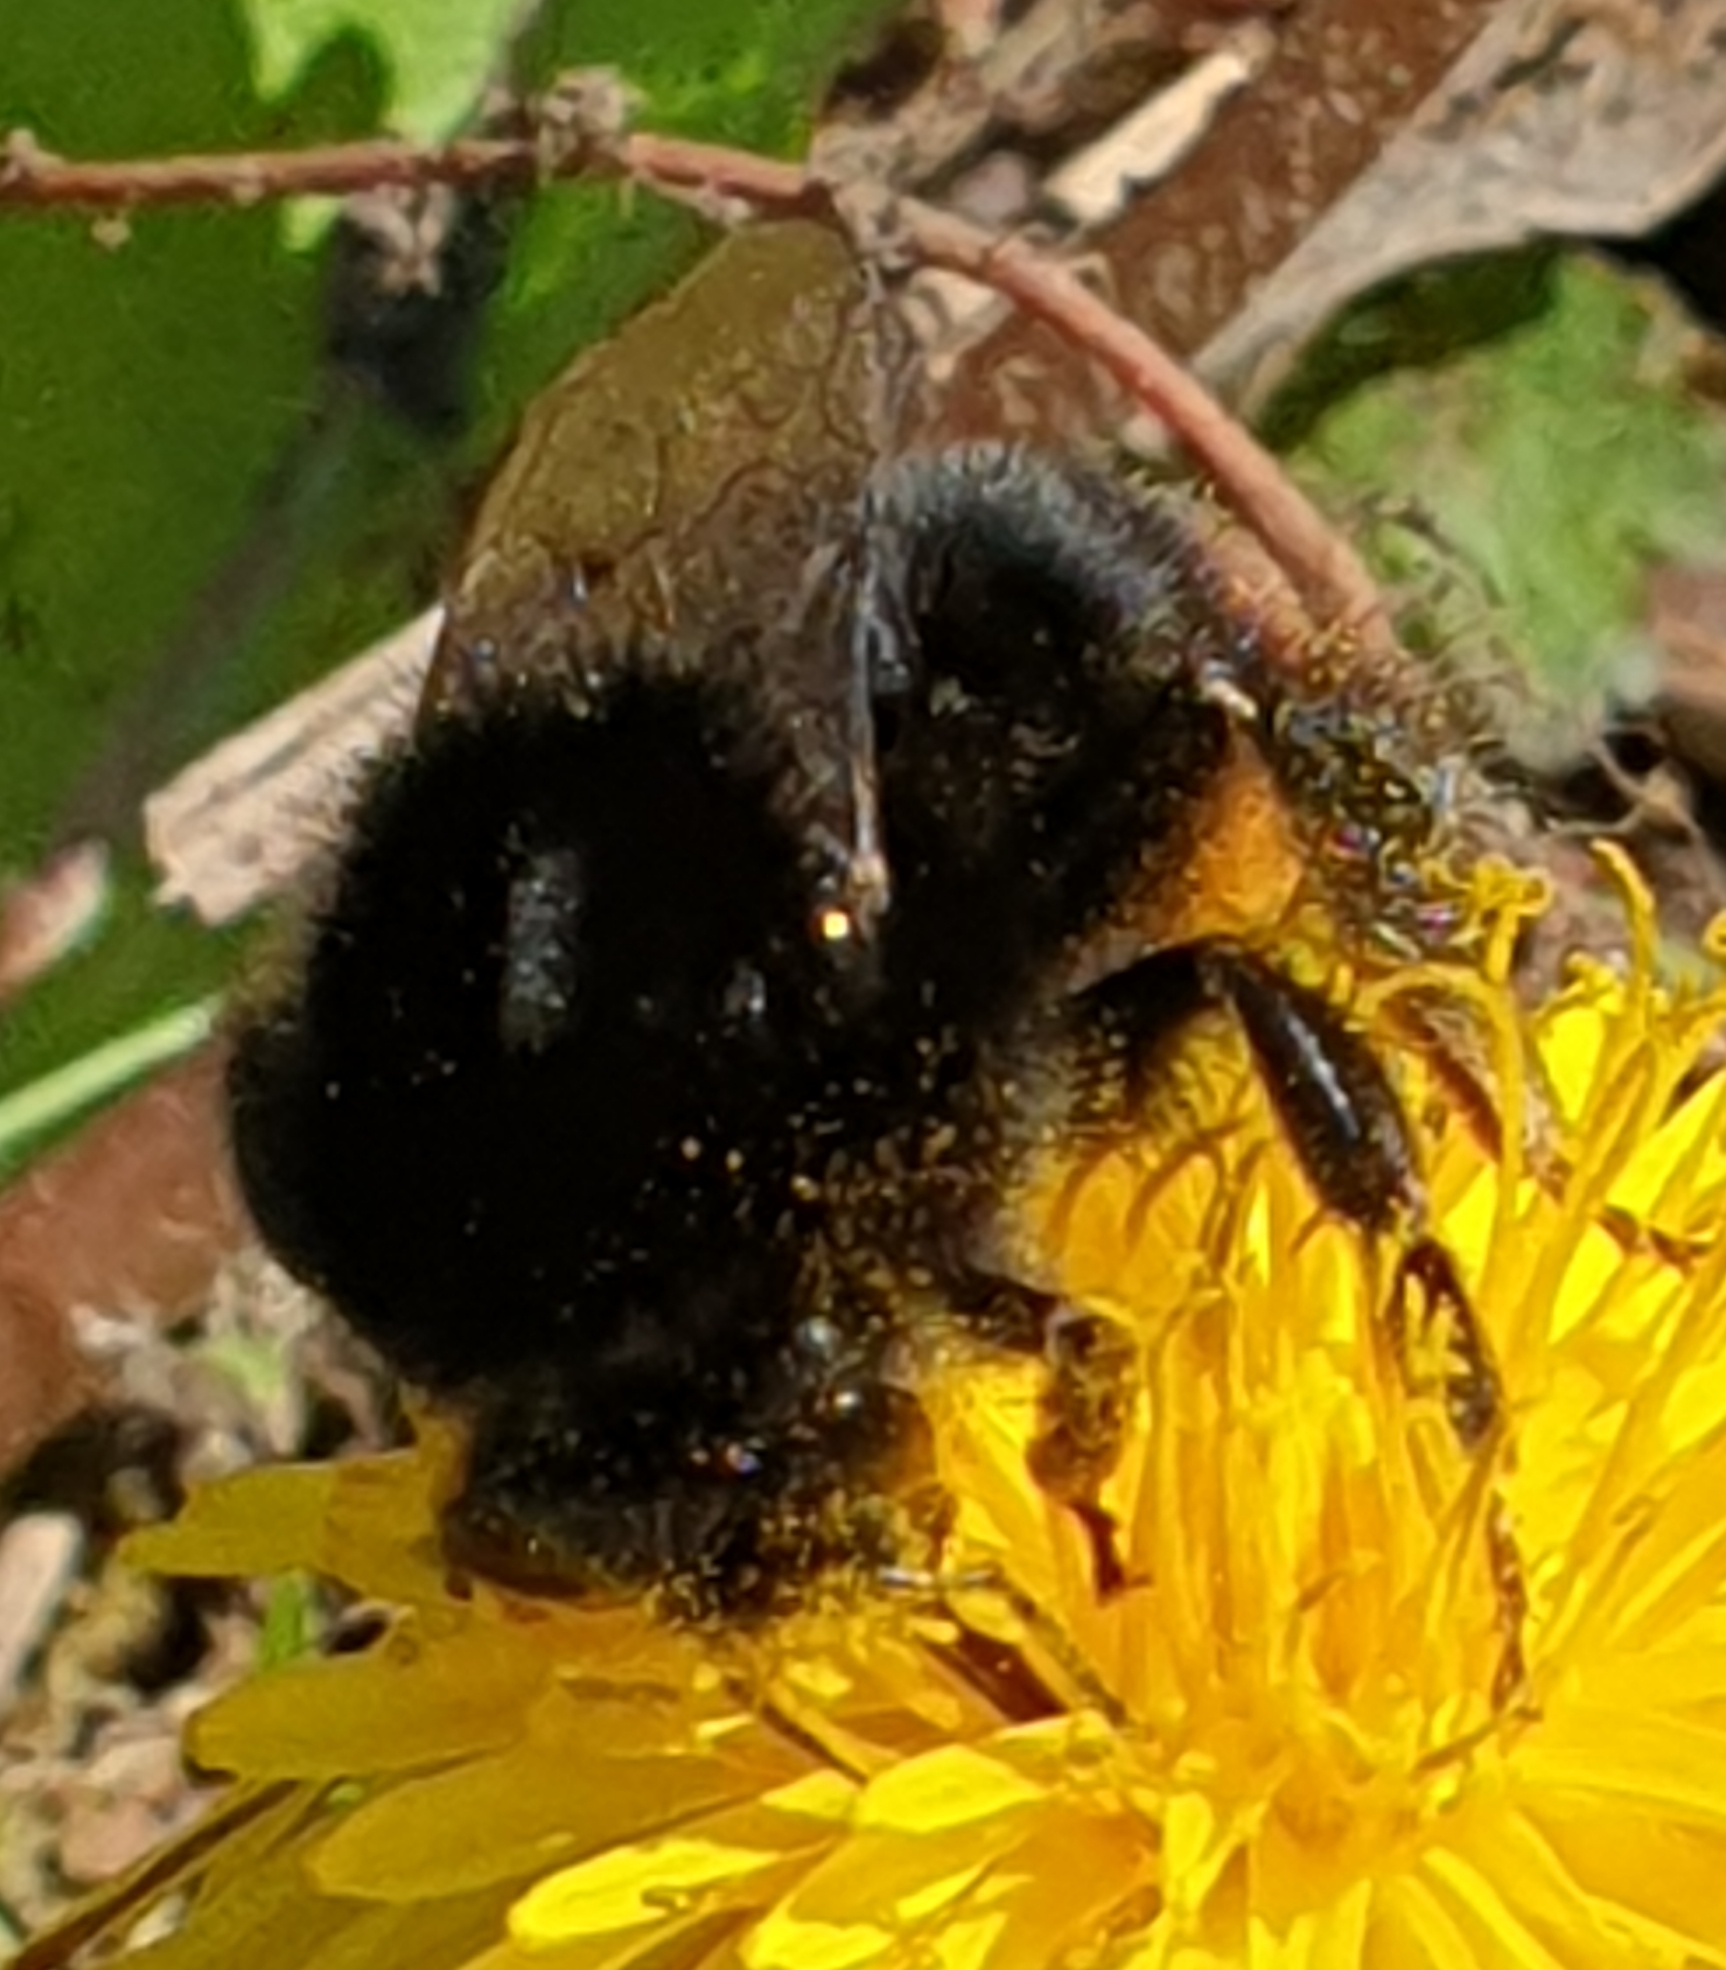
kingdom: Animalia
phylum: Arthropoda
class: Insecta
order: Hymenoptera
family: Apidae
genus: Bombus
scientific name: Bombus lapidarius
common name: Large red-tailed humble-bee
